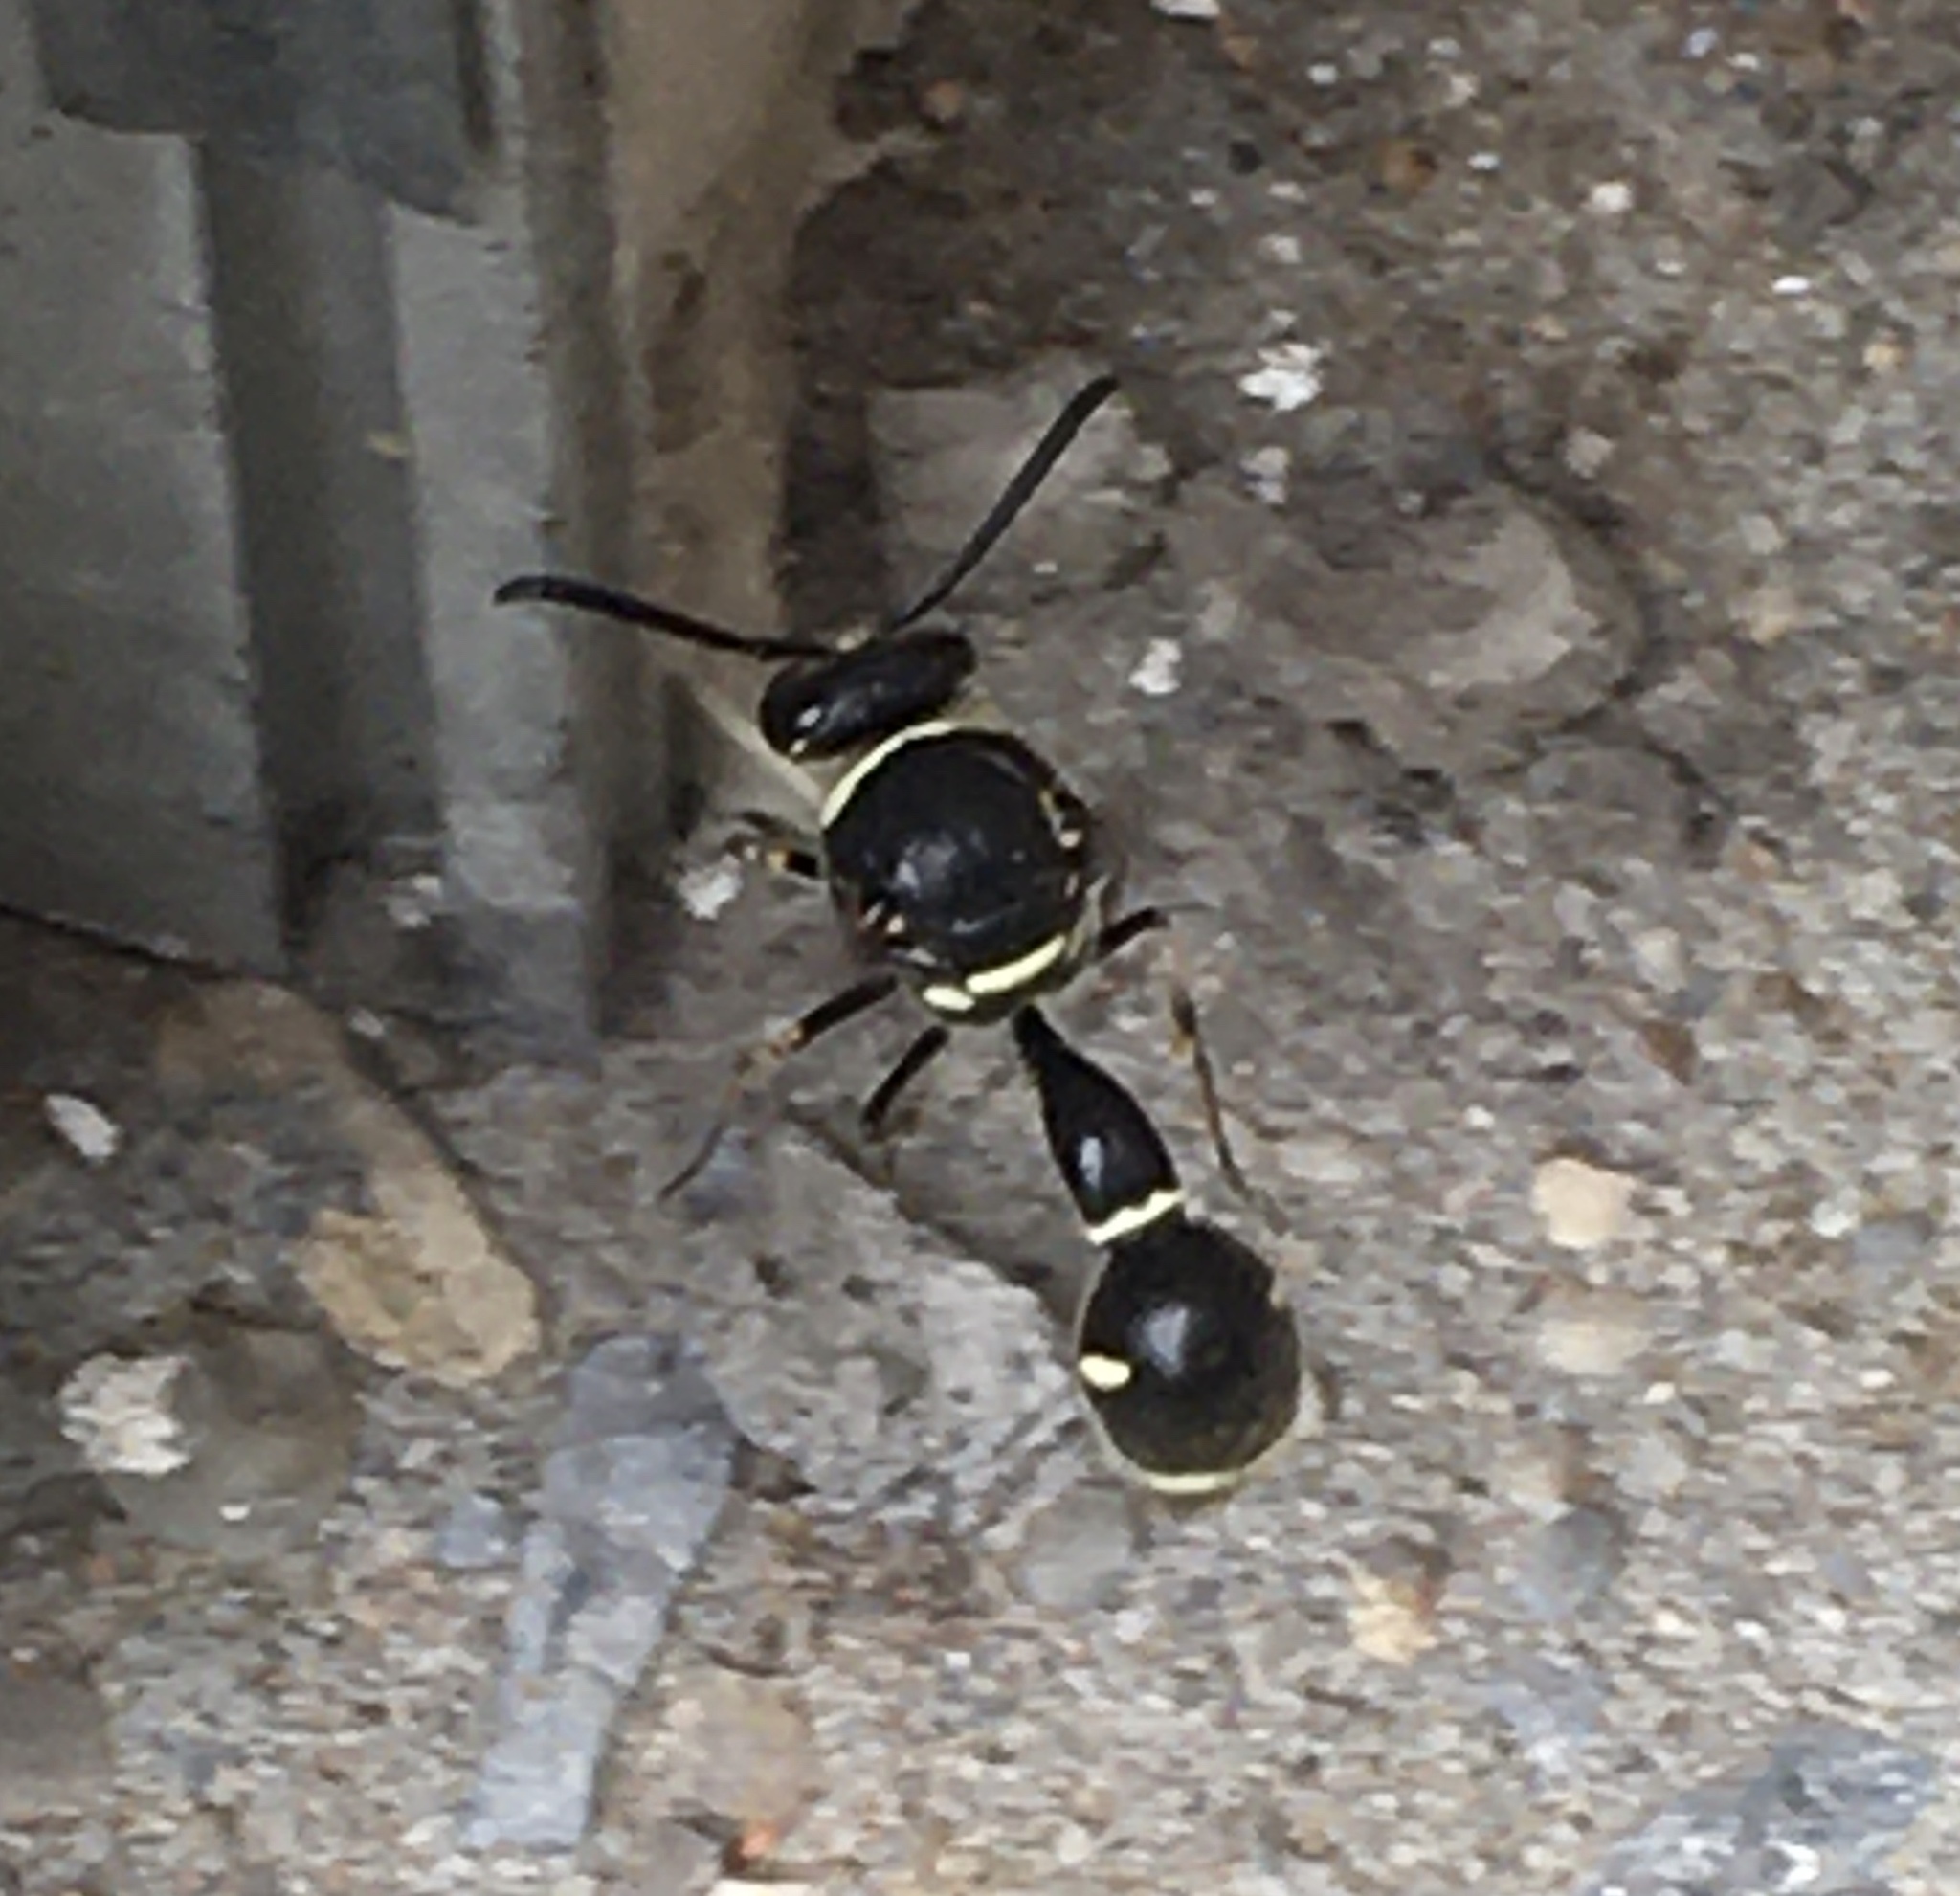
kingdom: Animalia
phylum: Arthropoda
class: Insecta
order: Hymenoptera
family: Vespidae
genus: Eumenes
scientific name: Eumenes fraternus
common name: Fraternal potter wasp
